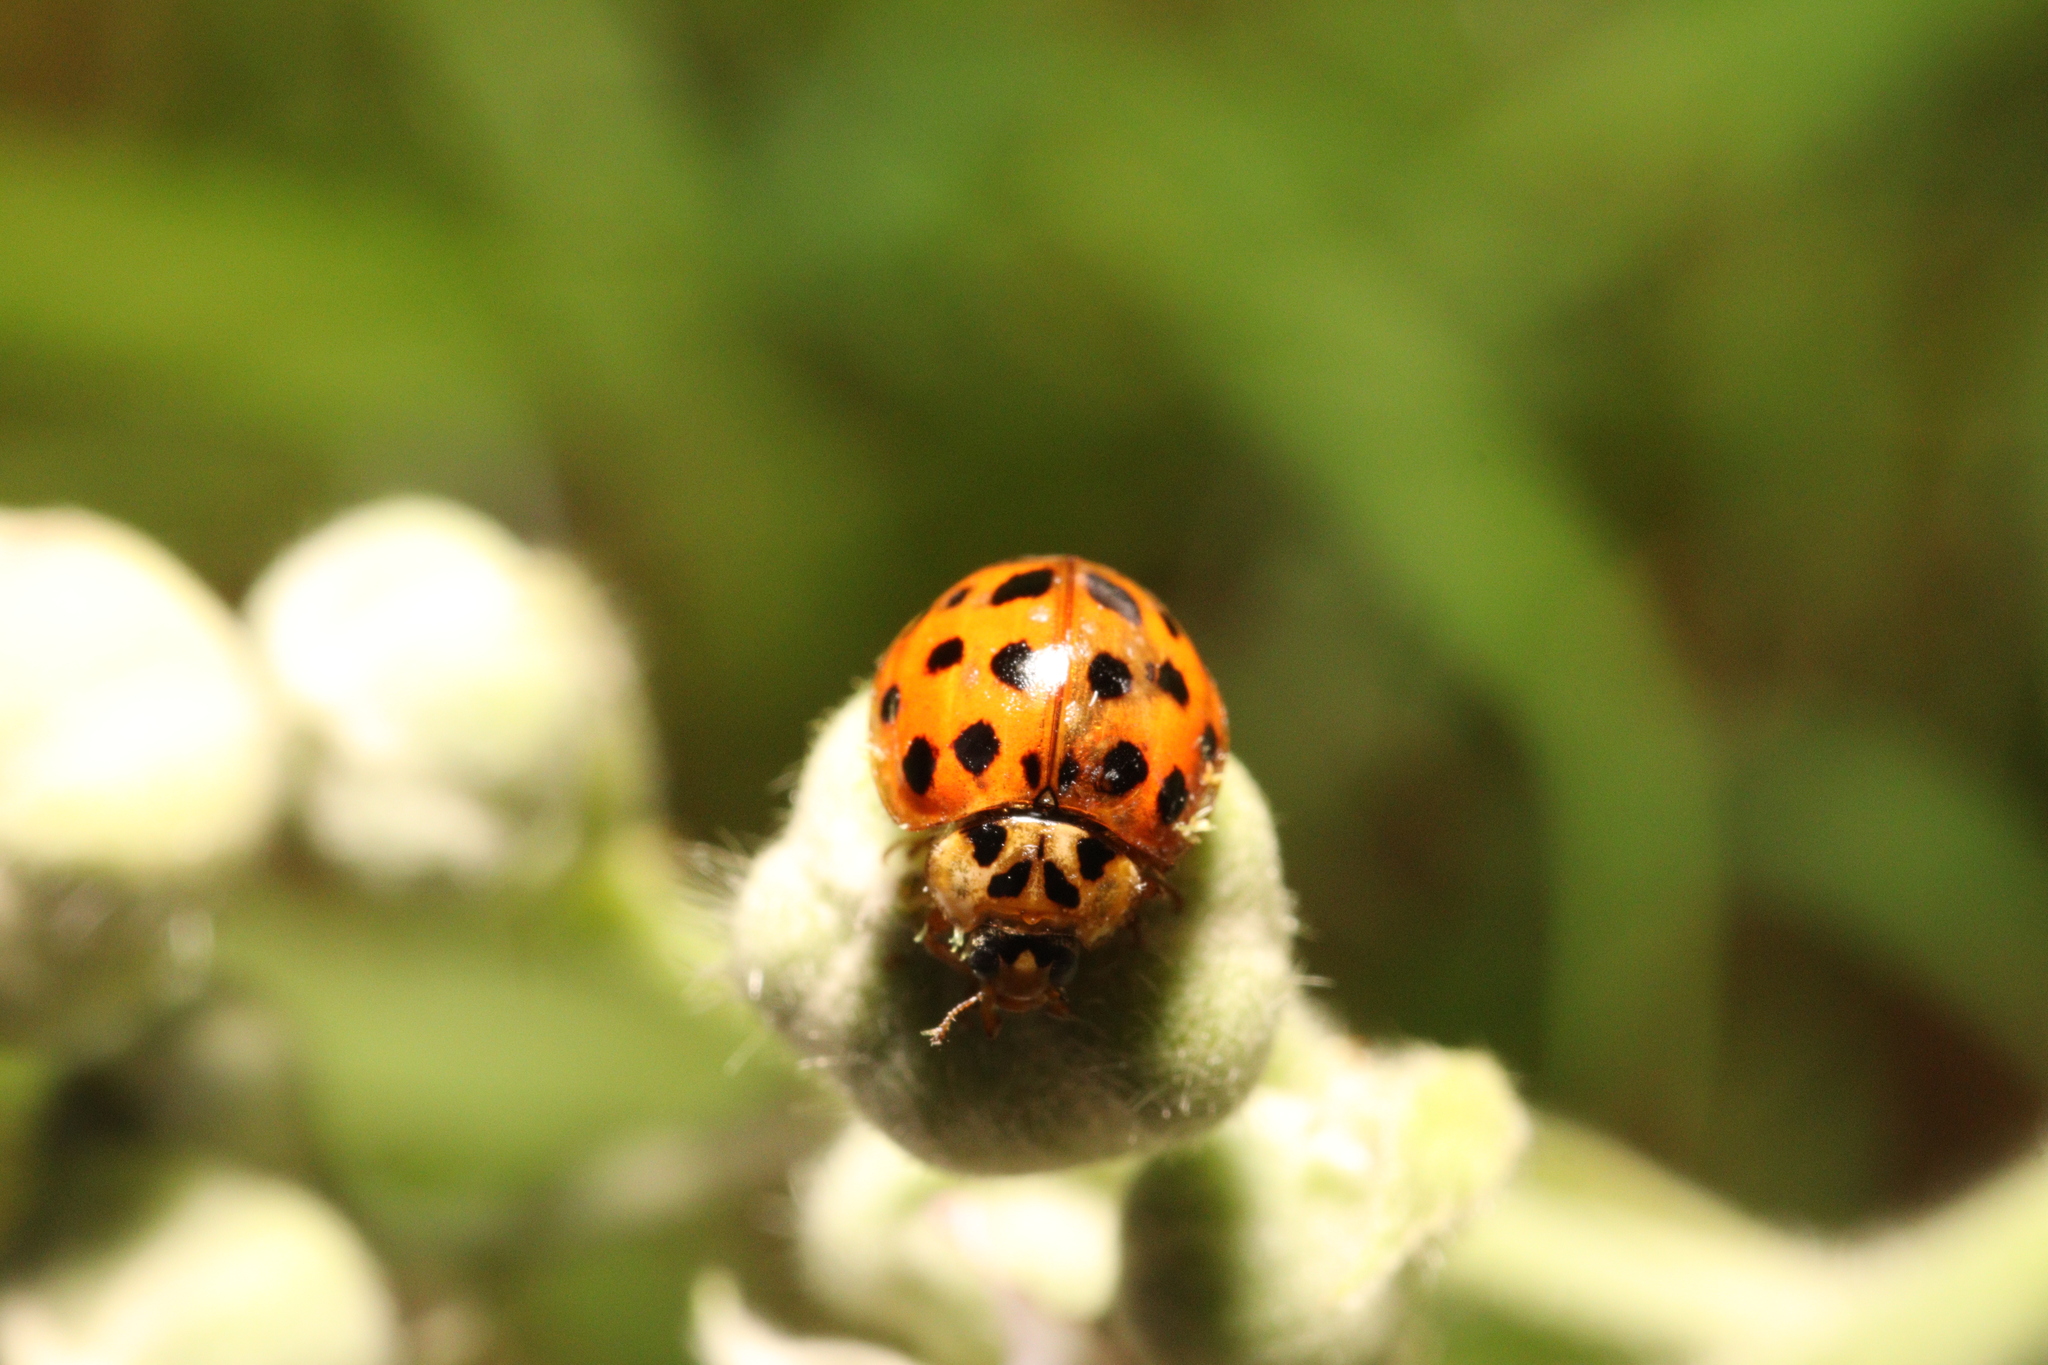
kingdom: Animalia
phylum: Arthropoda
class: Insecta
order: Coleoptera
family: Coccinellidae
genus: Harmonia
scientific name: Harmonia axyridis
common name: Harlequin ladybird
